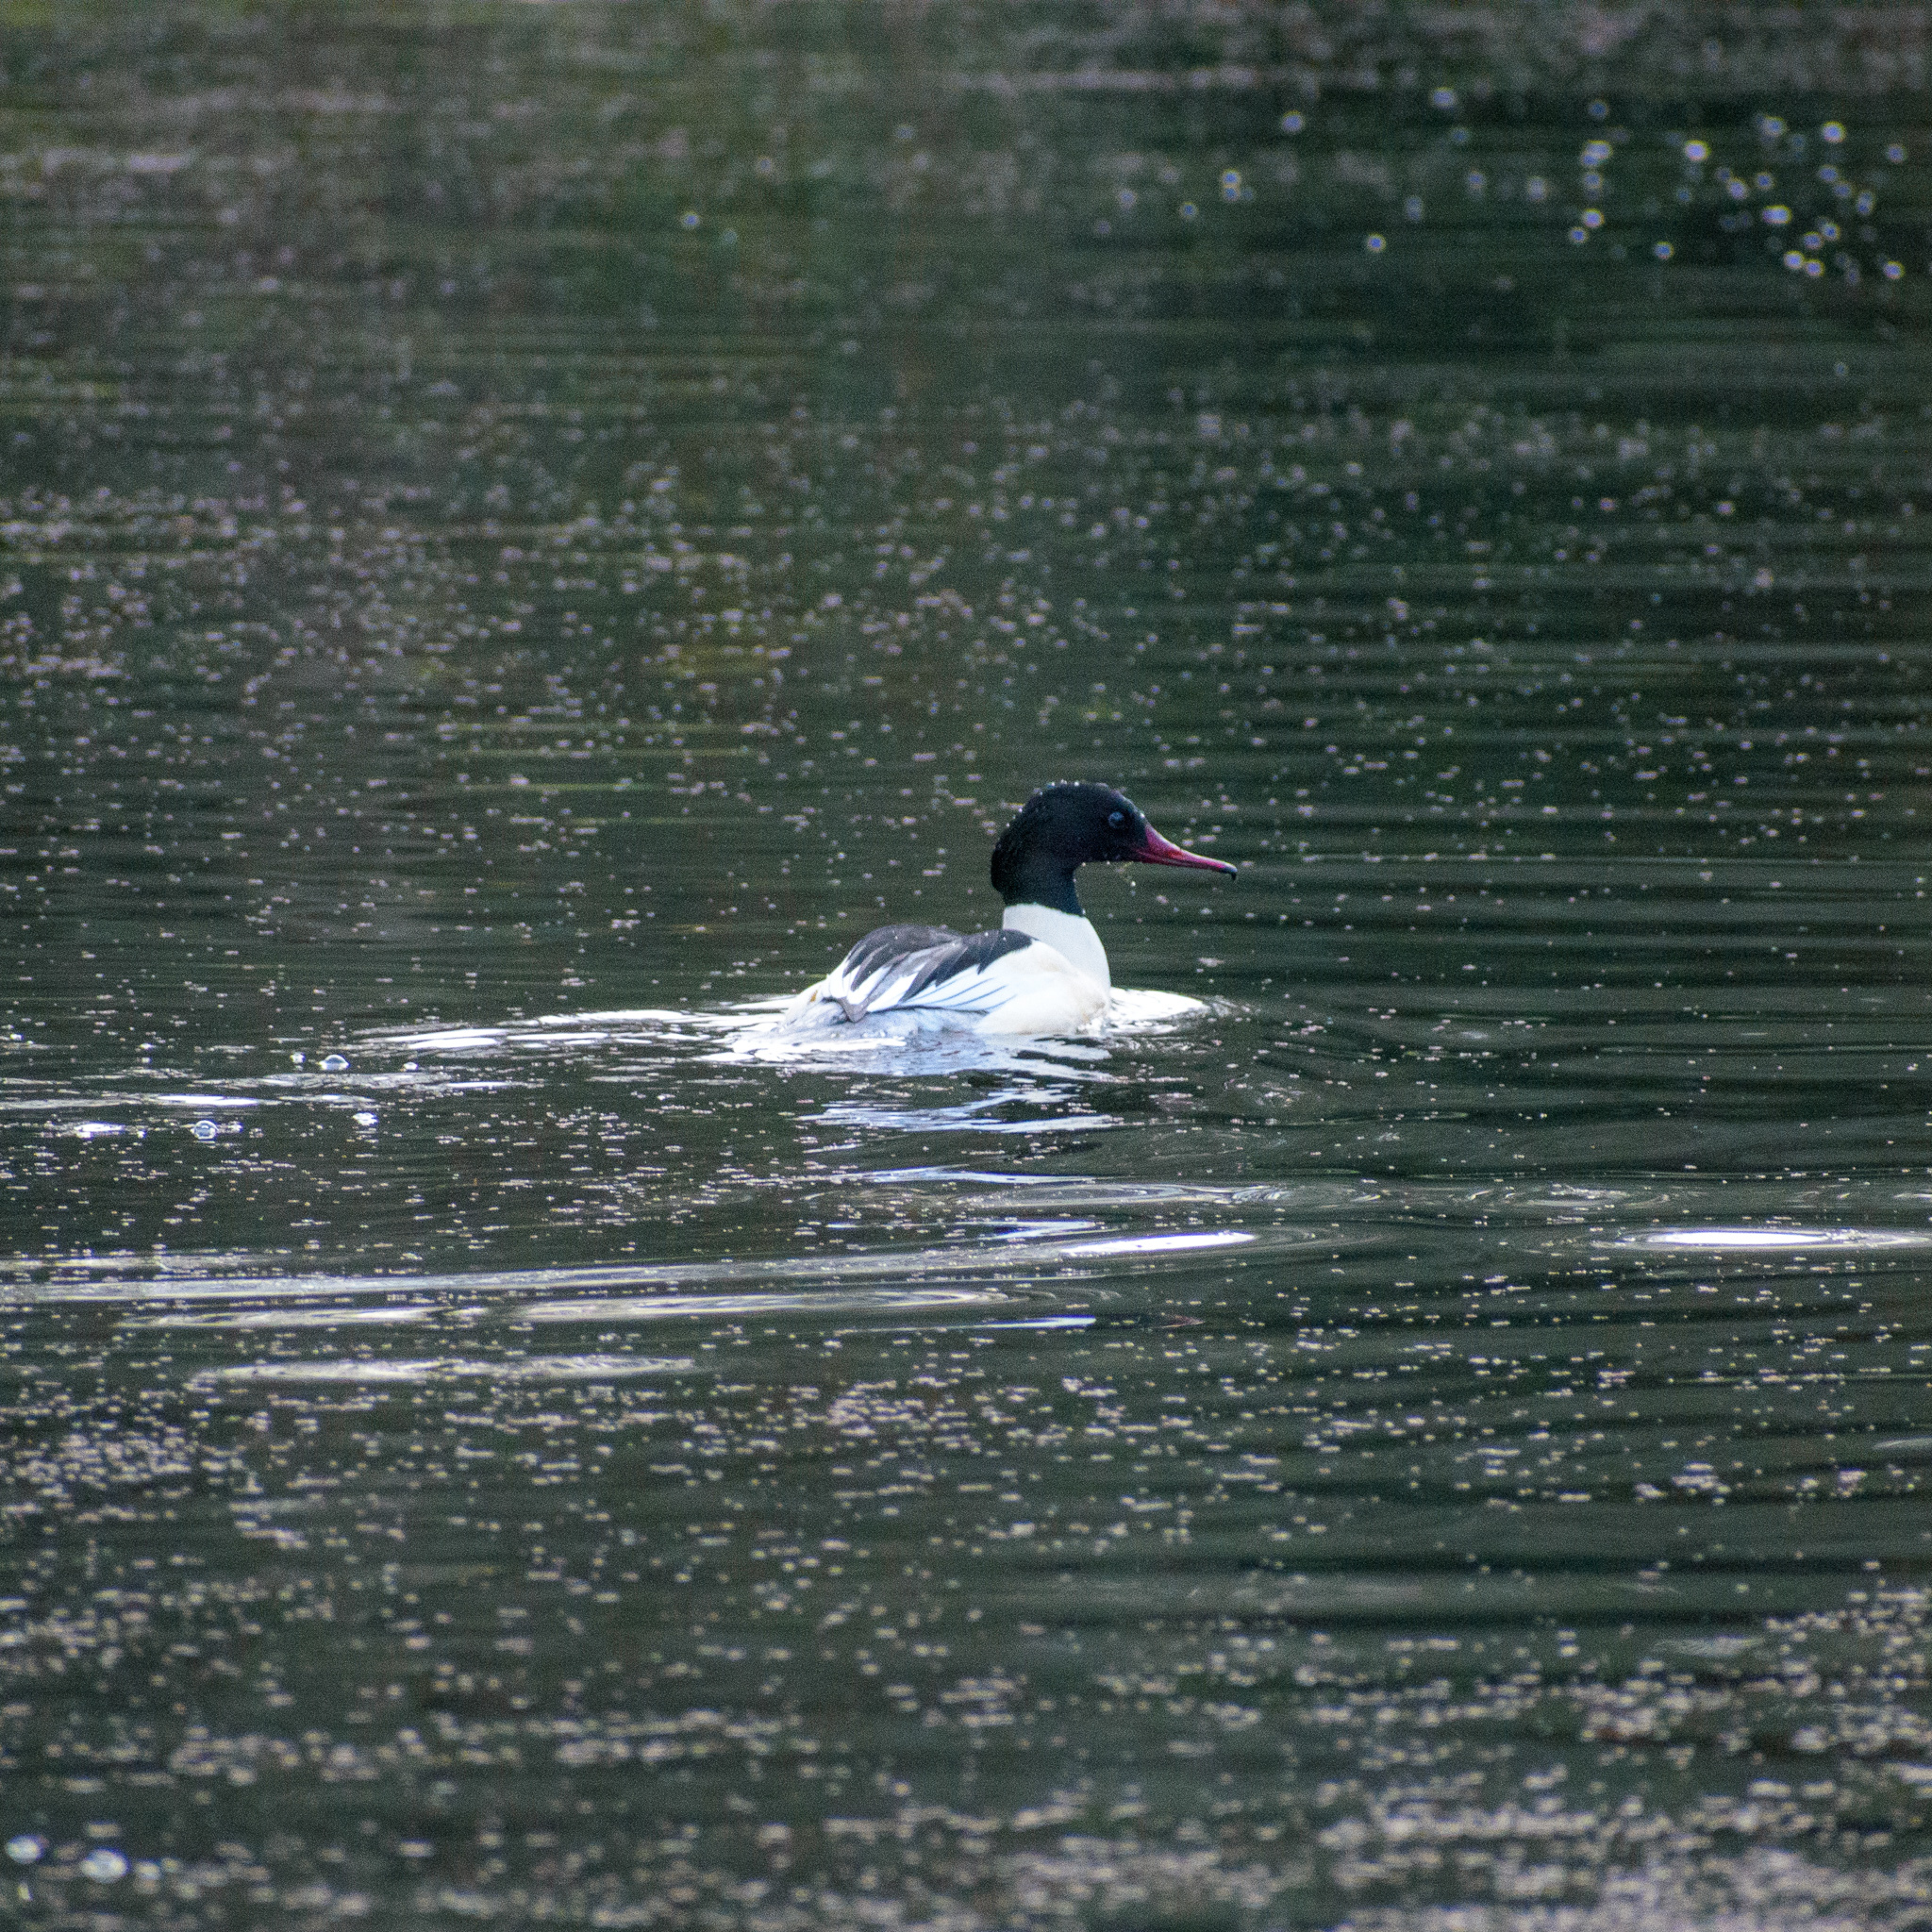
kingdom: Animalia
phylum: Chordata
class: Aves
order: Anseriformes
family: Anatidae
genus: Mergus
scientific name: Mergus merganser
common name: Common merganser
